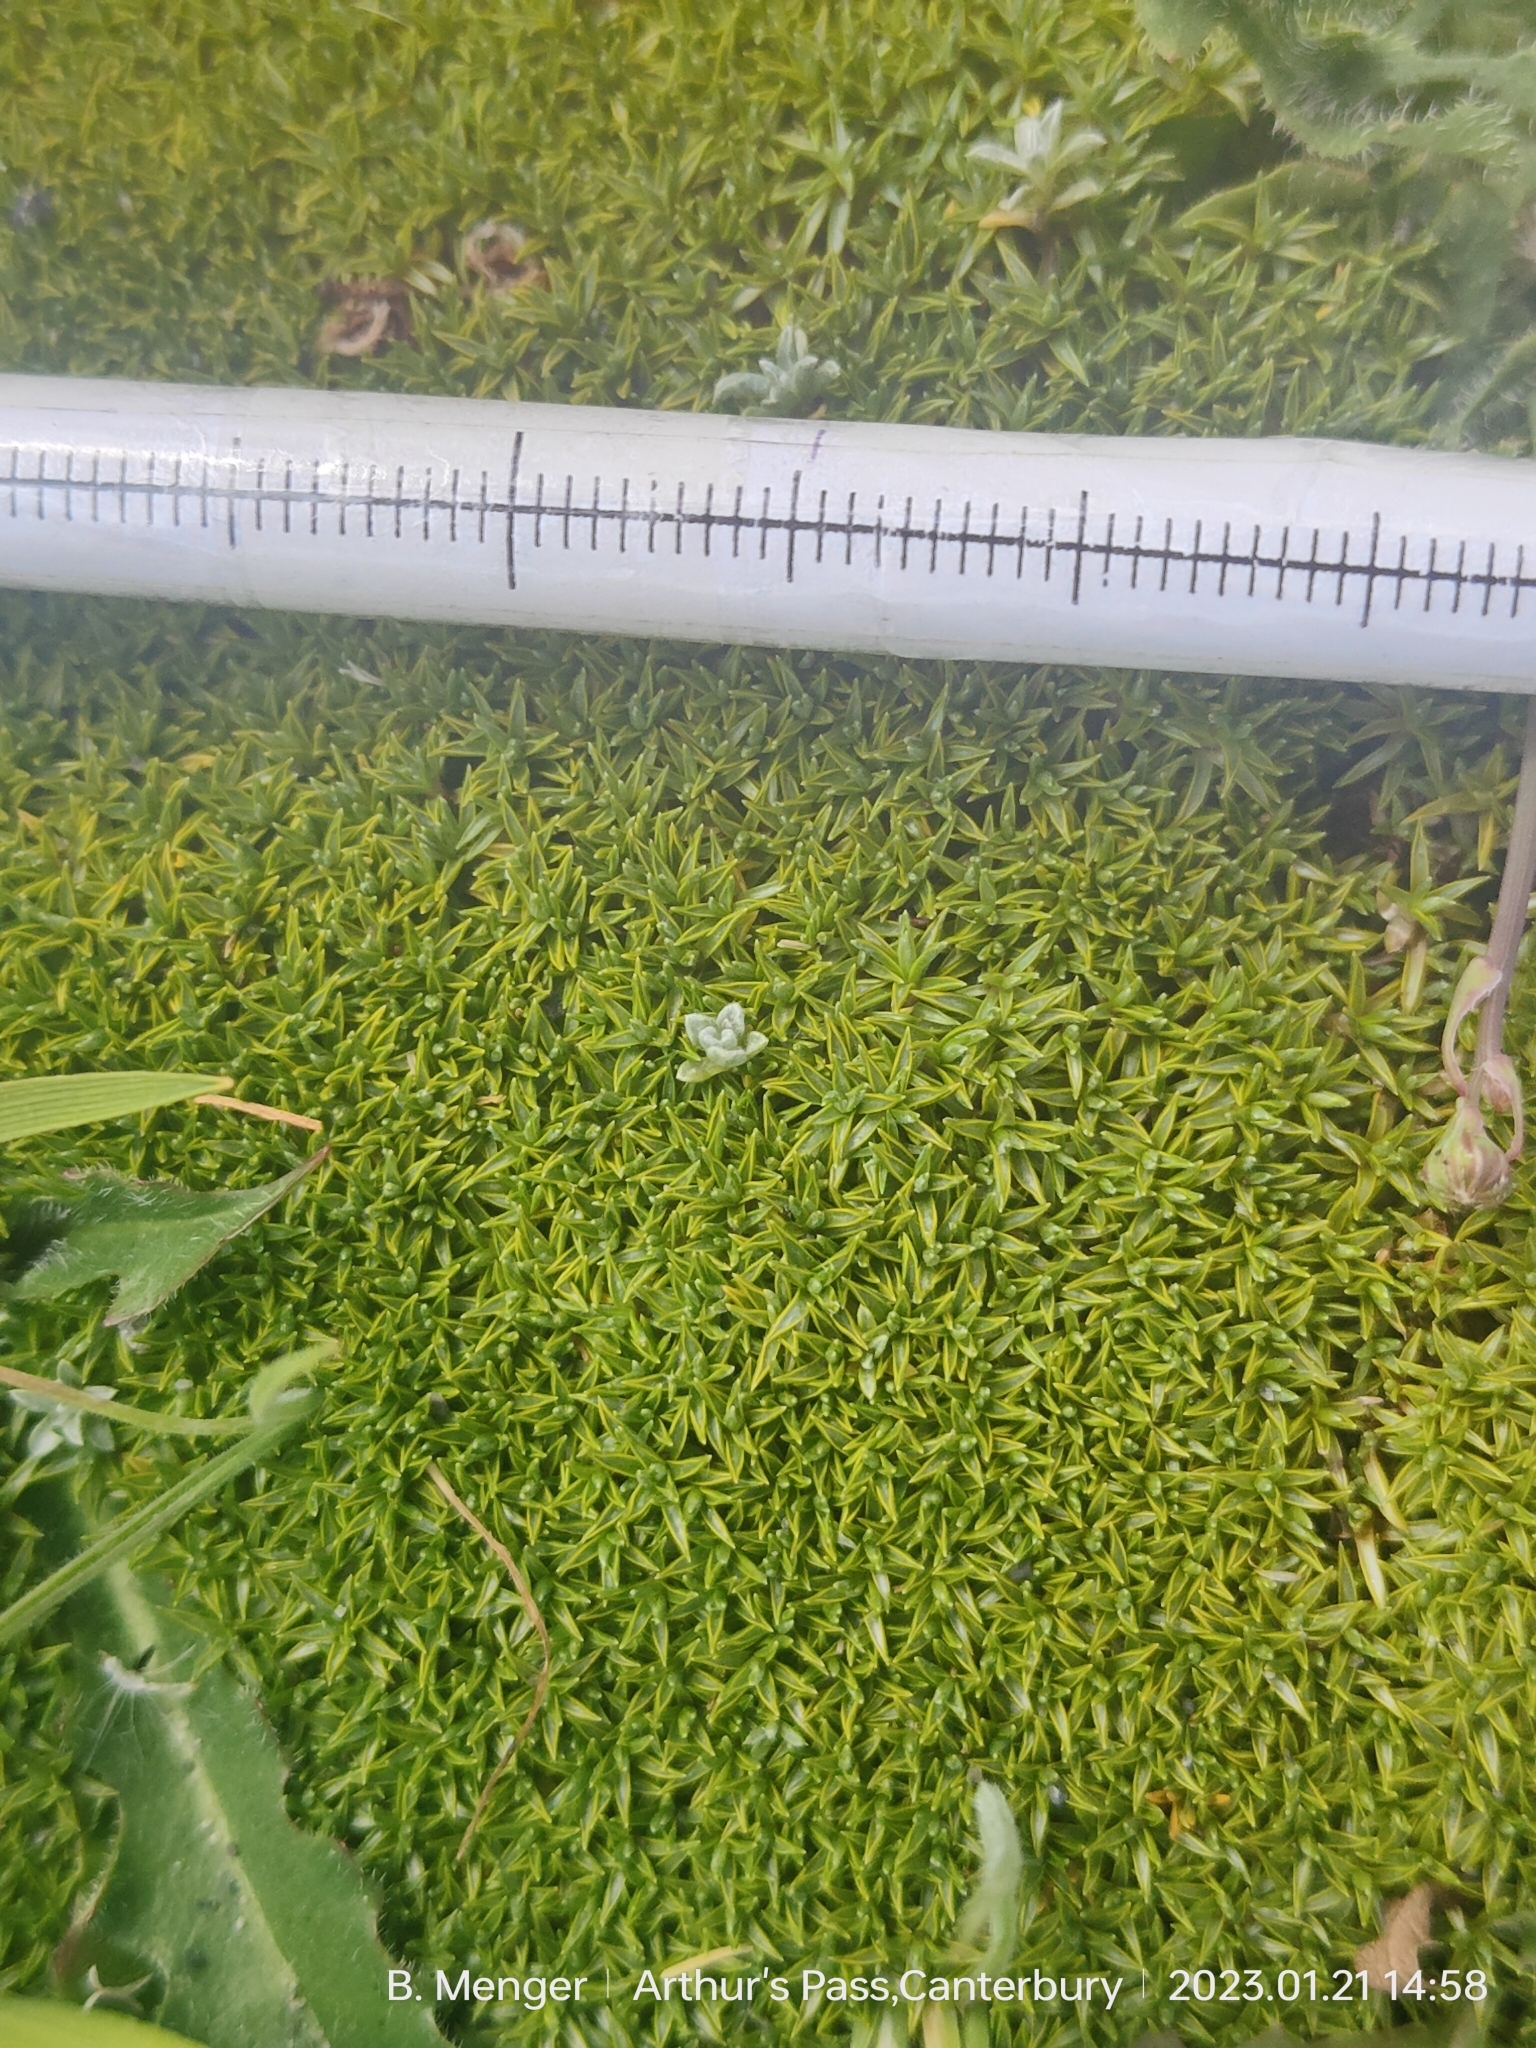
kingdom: Plantae
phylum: Tracheophyta
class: Magnoliopsida
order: Asterales
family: Asteraceae
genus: Raoulia
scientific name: Raoulia tenuicaulis
